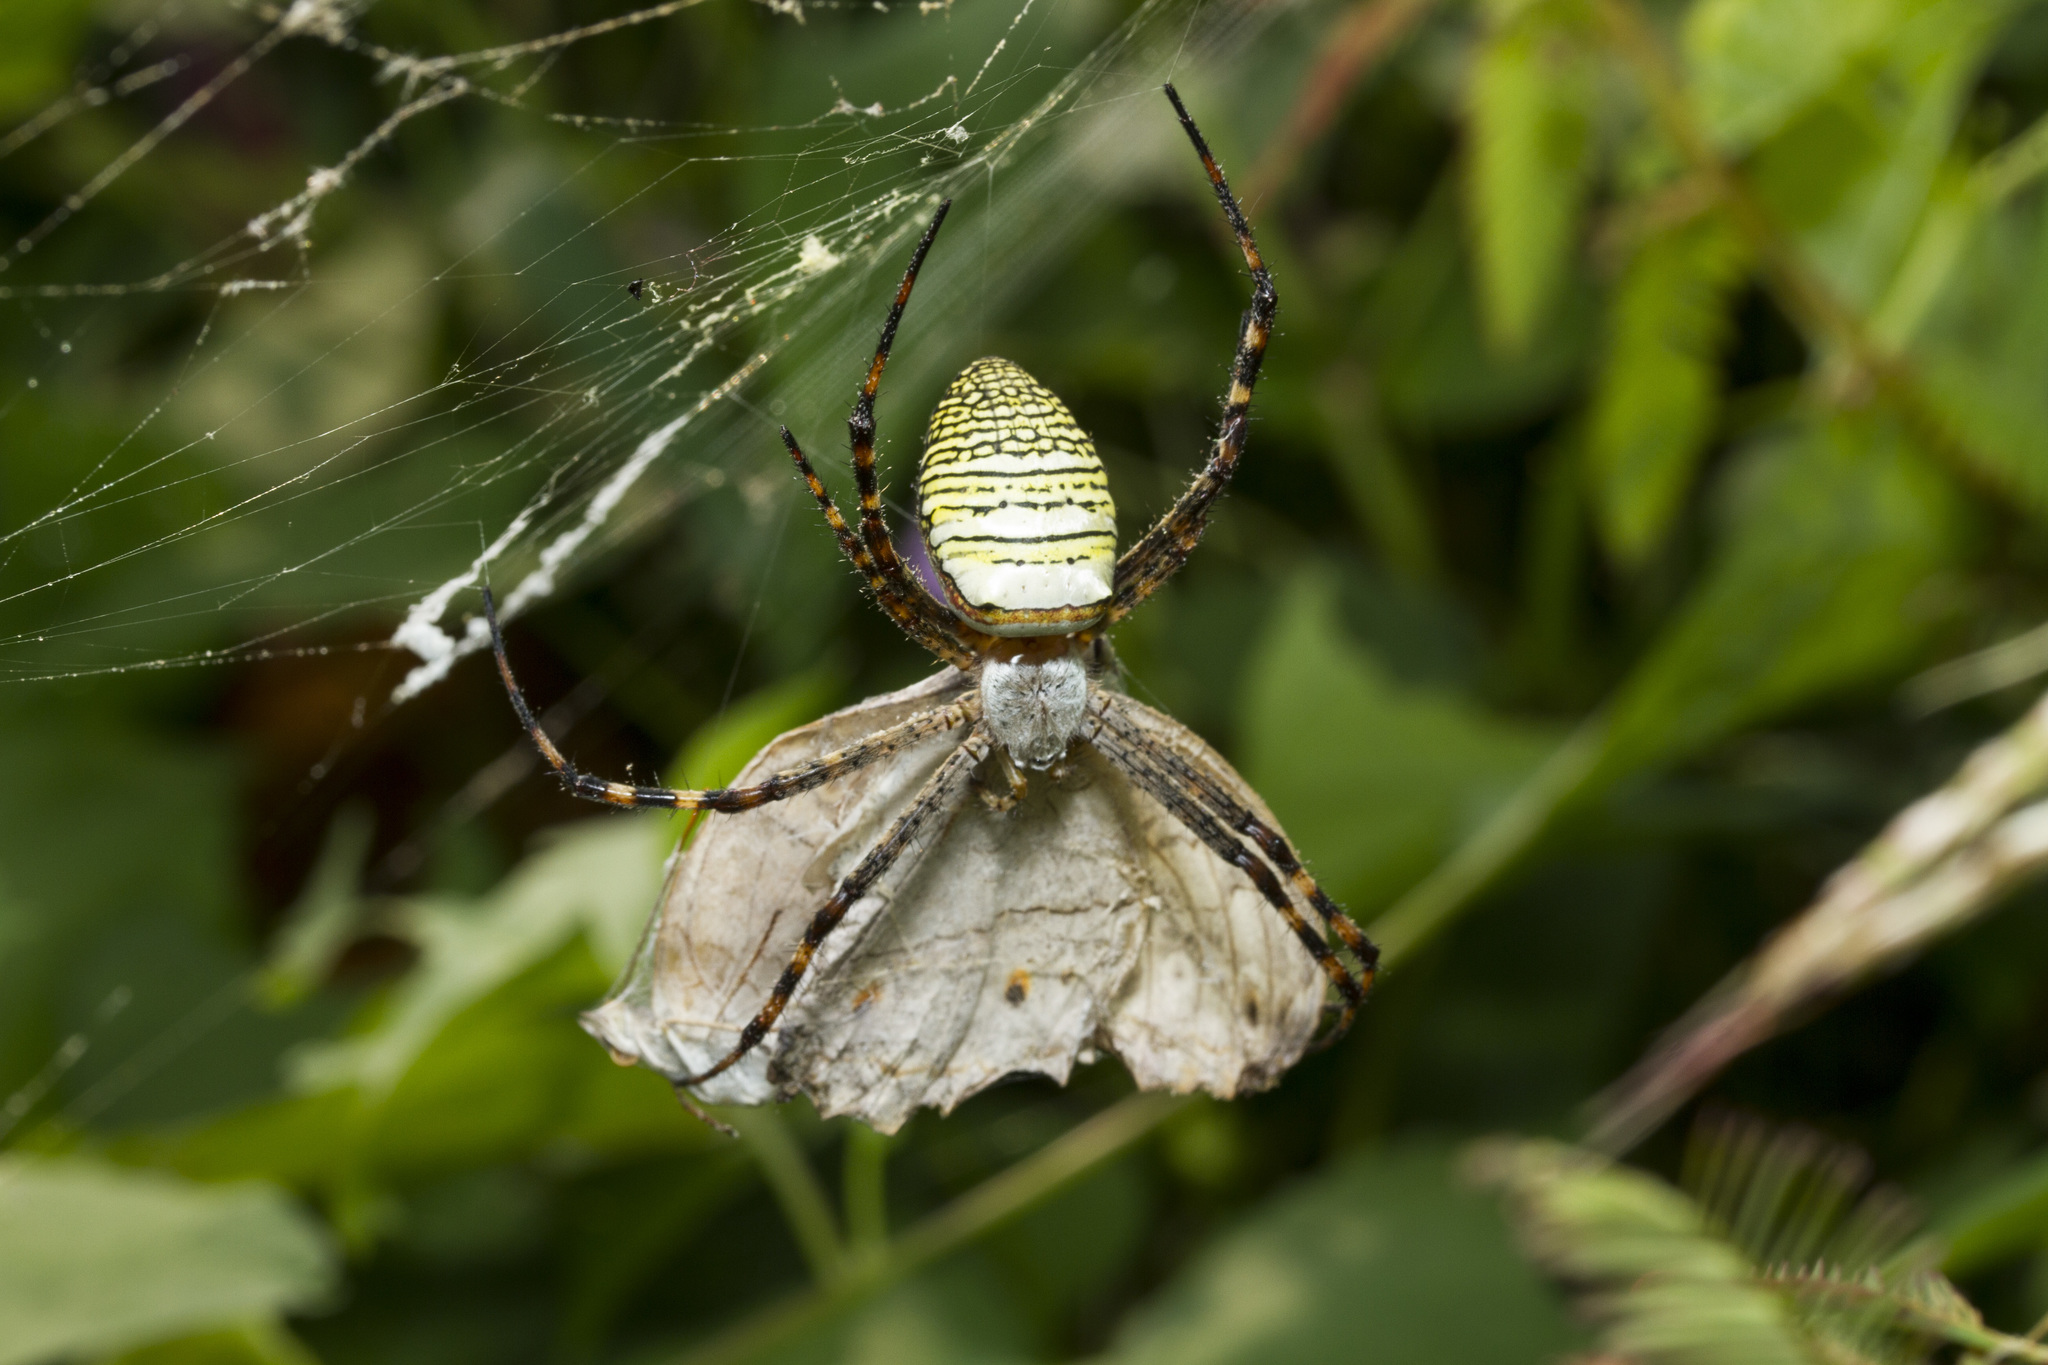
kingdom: Animalia
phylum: Arthropoda
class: Arachnida
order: Araneae
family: Araneidae
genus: Argiope
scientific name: Argiope aemula
